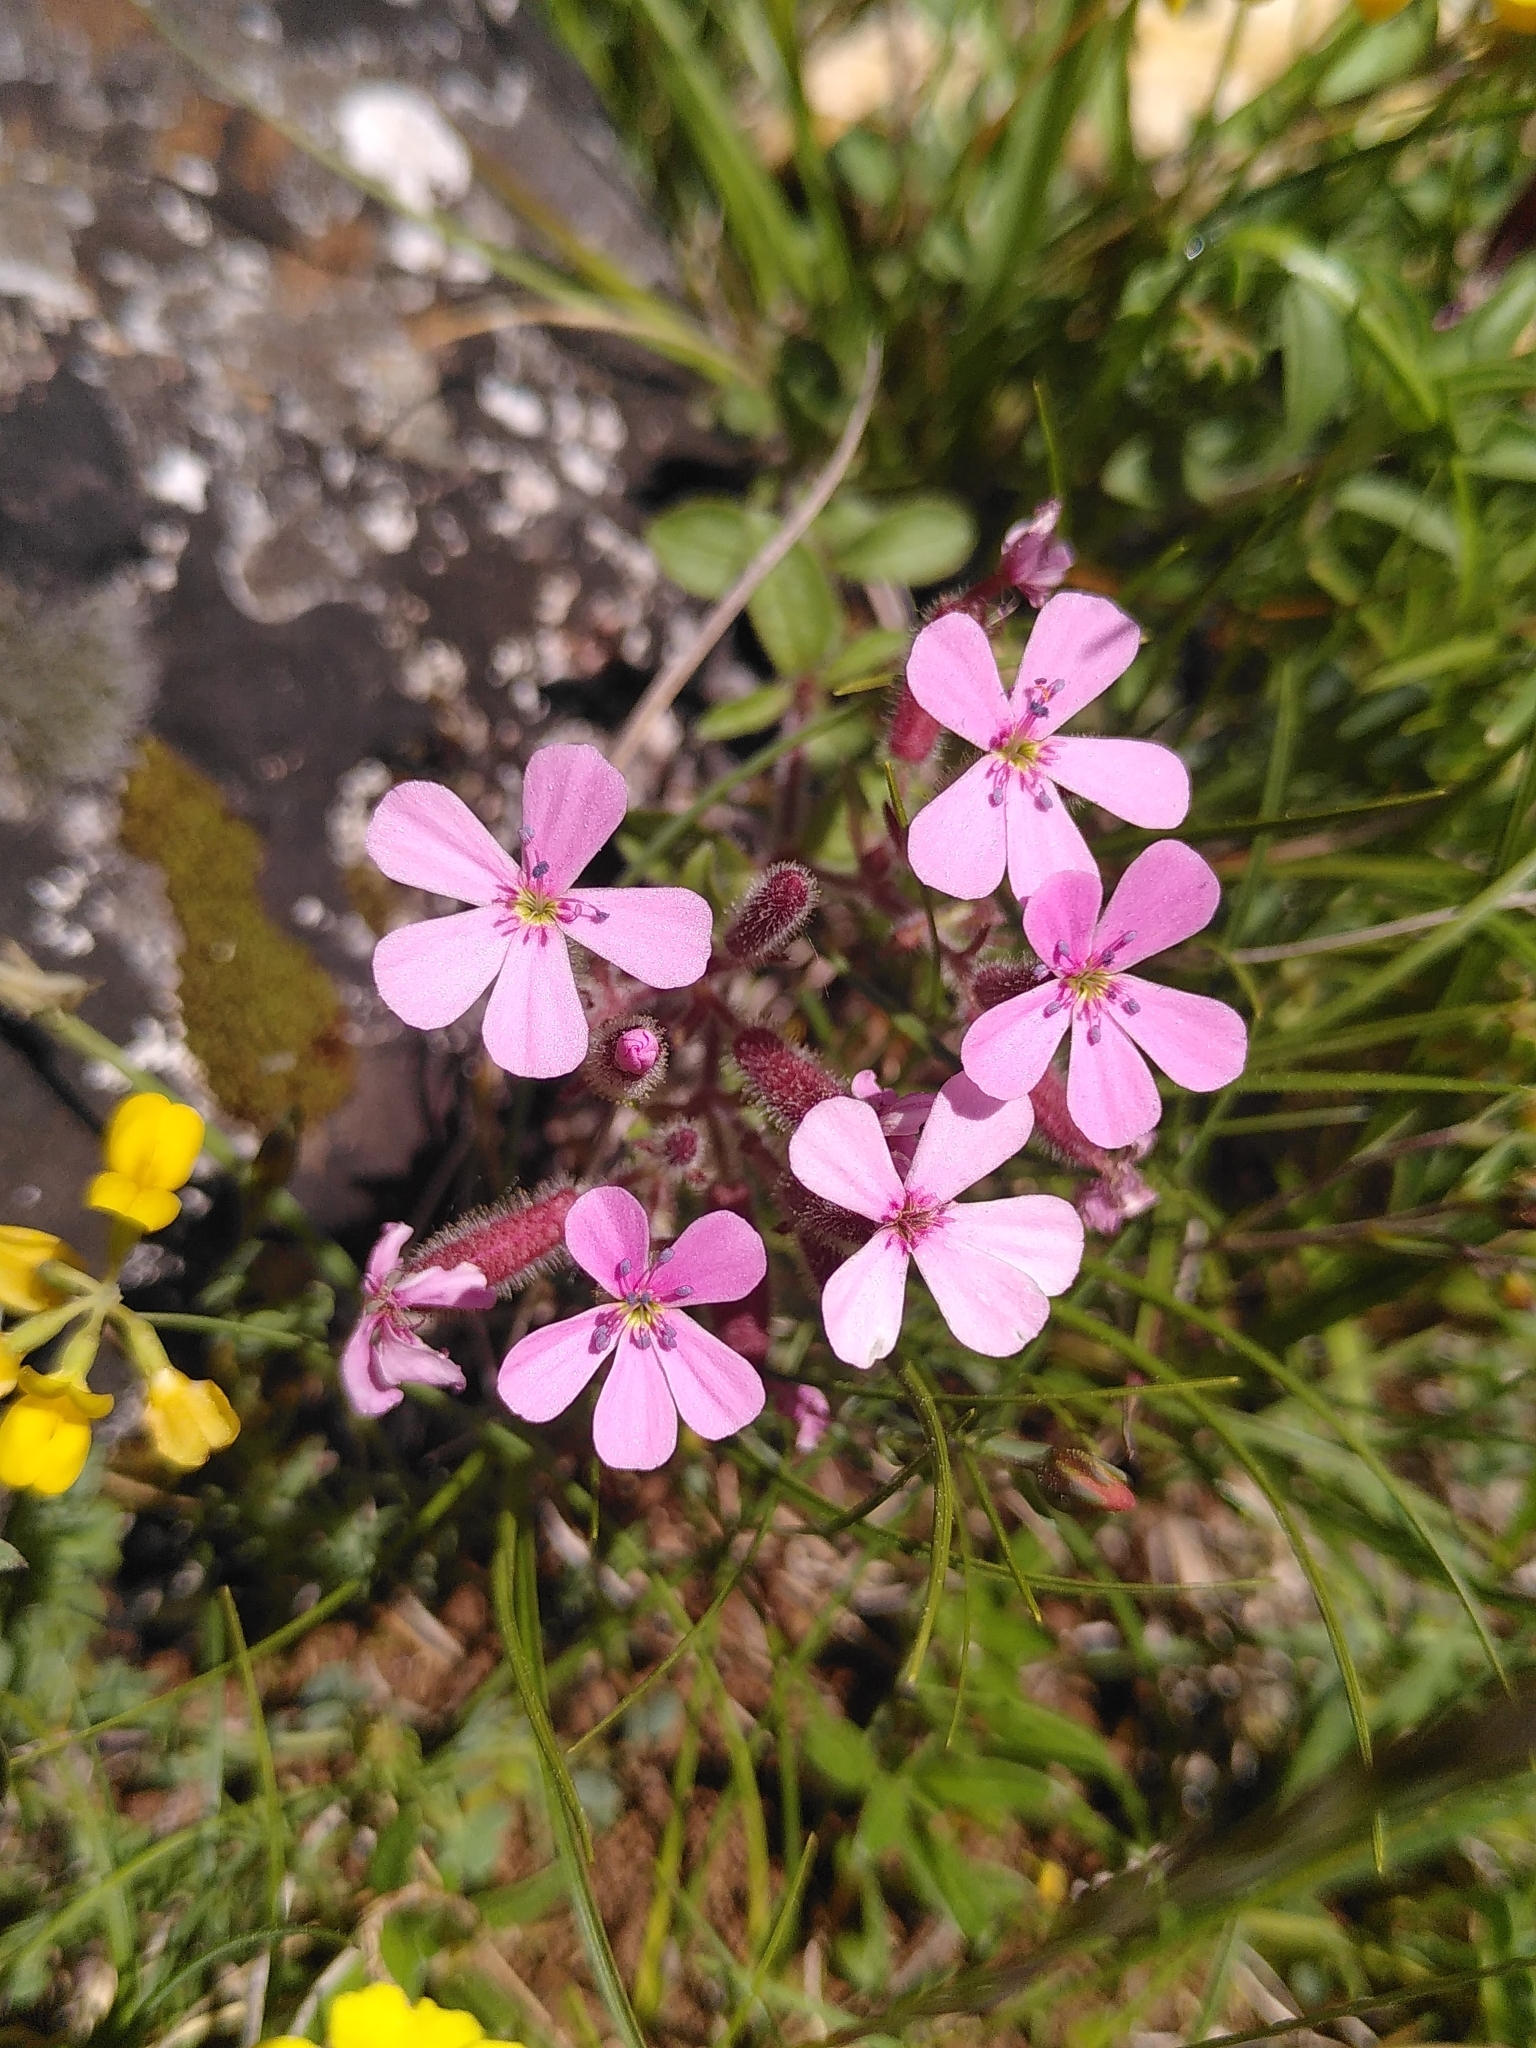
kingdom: Plantae
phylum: Tracheophyta
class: Magnoliopsida
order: Caryophyllales
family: Caryophyllaceae
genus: Saponaria
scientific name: Saponaria ocymoides
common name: Rock soapwort
